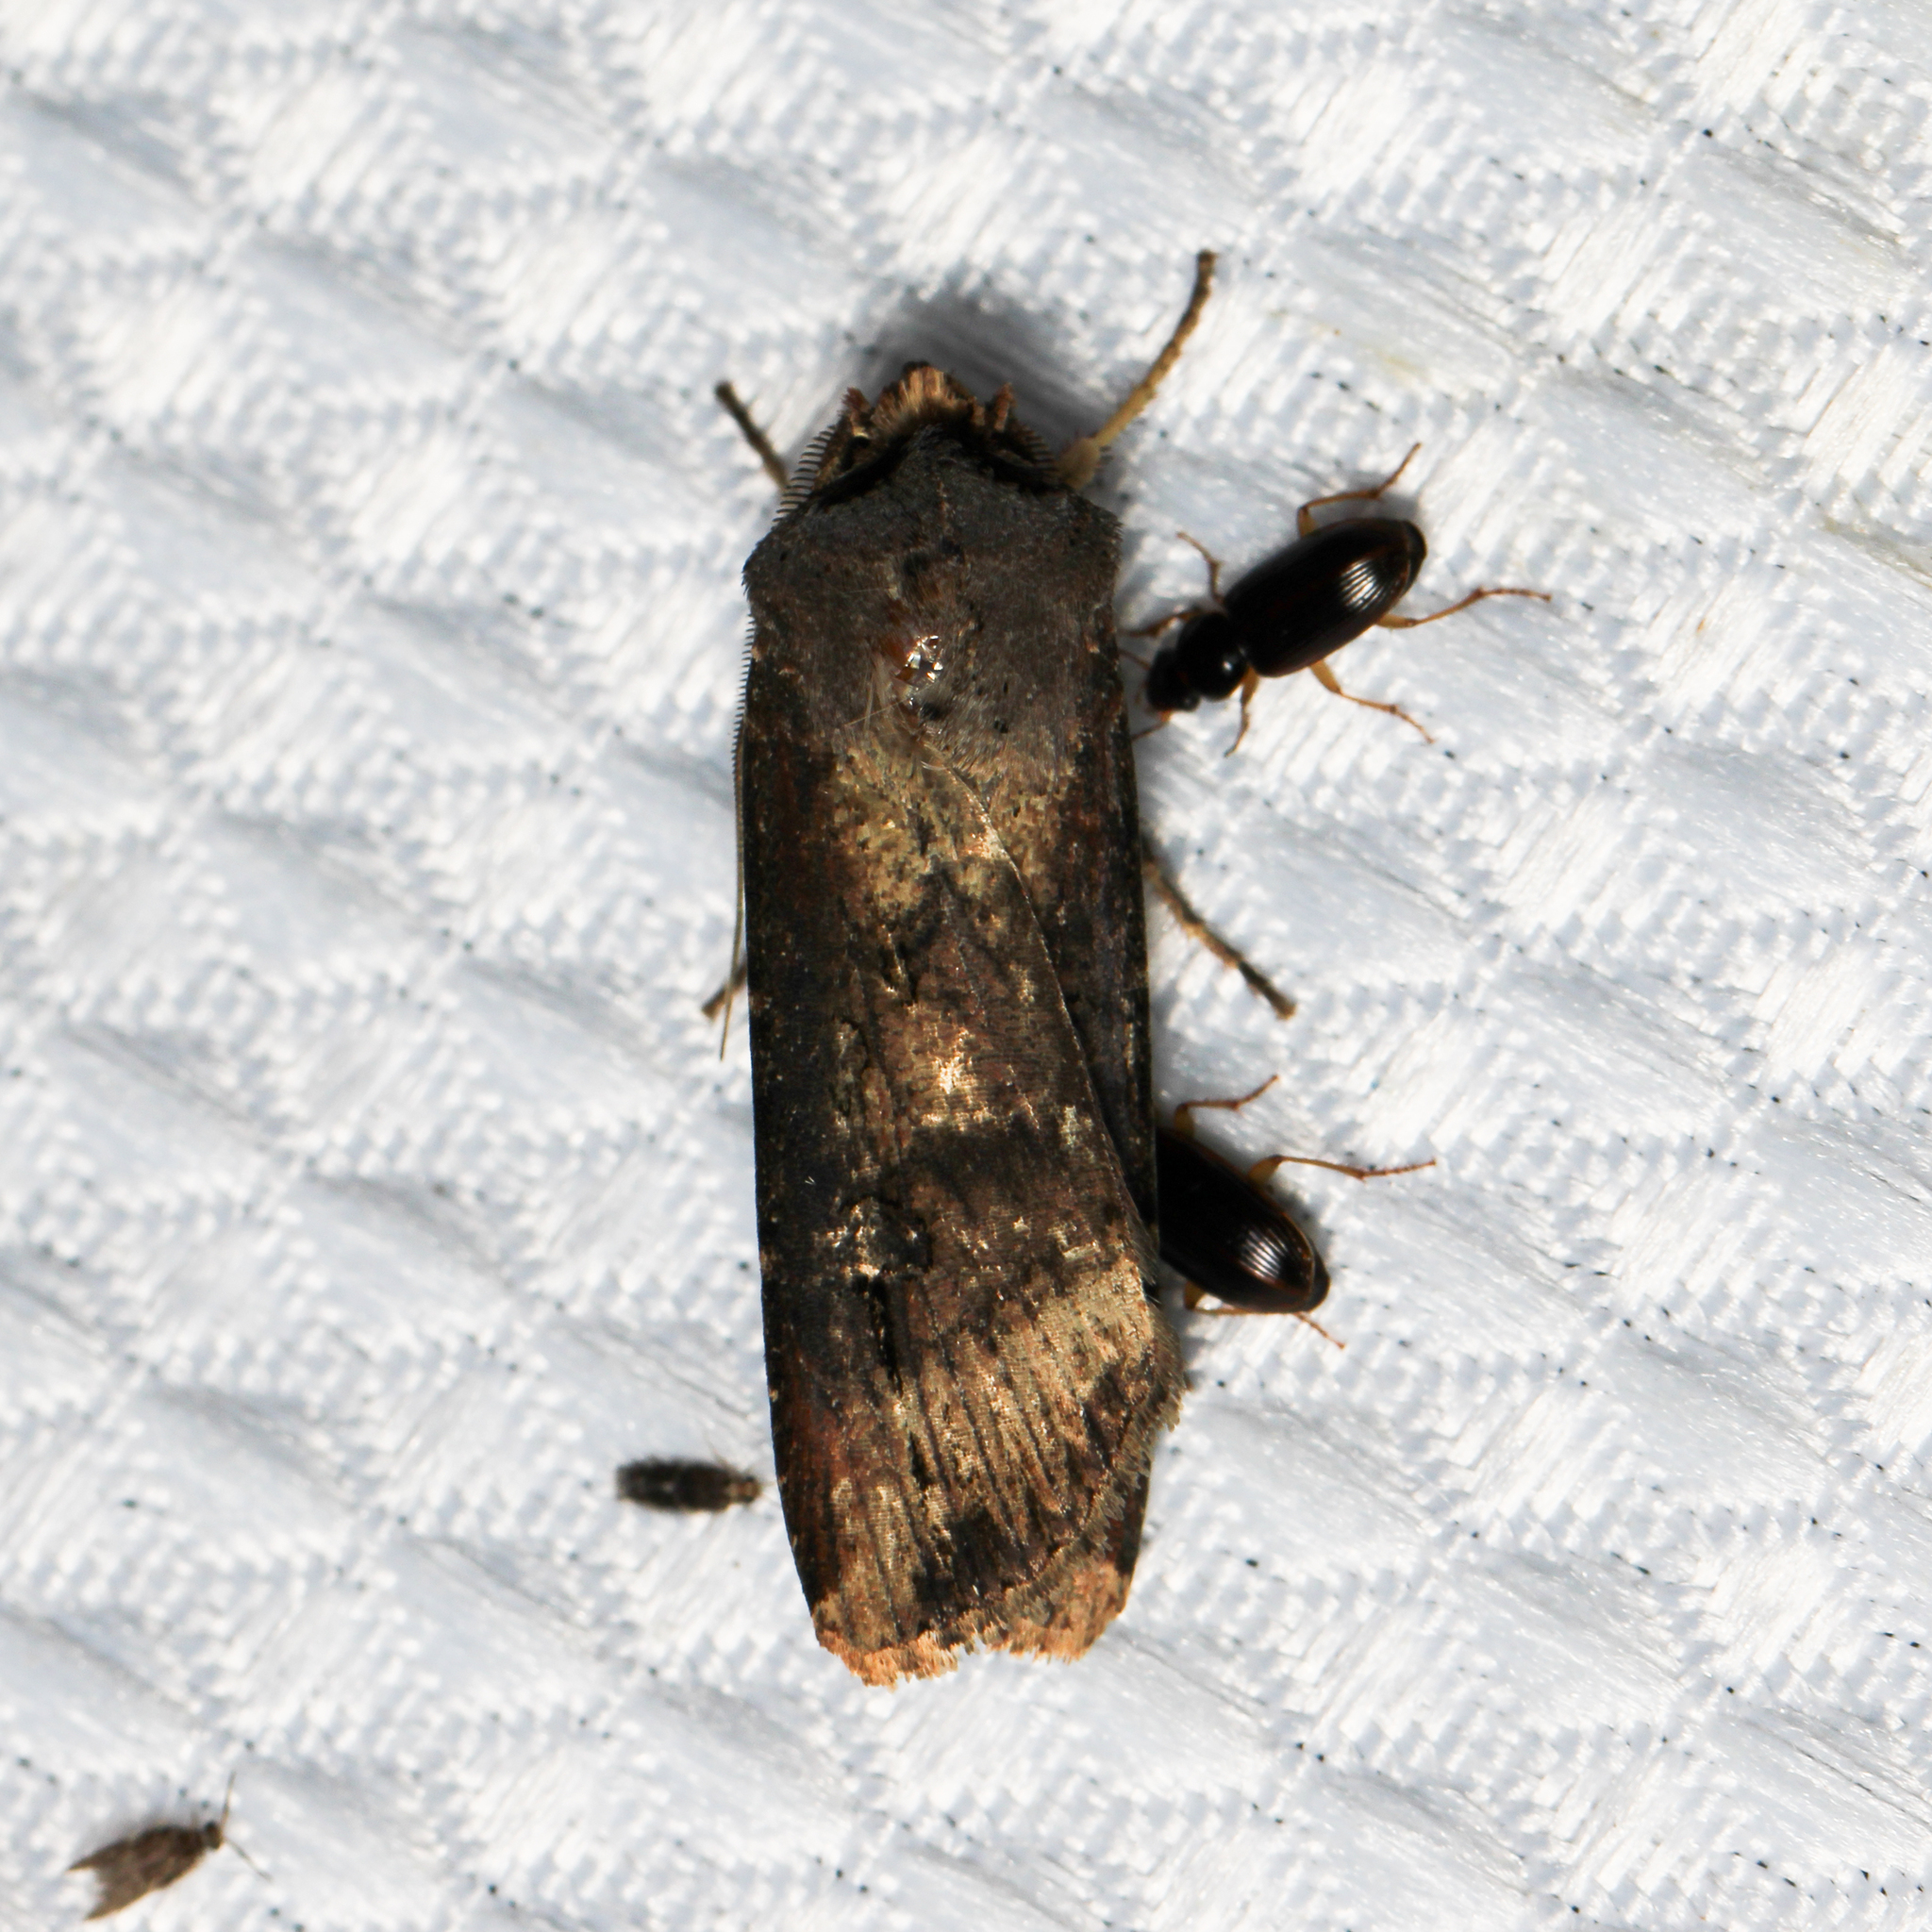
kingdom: Animalia
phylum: Arthropoda
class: Insecta
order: Lepidoptera
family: Noctuidae
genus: Agrotis
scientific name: Agrotis ipsilon
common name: Dark sword-grass
